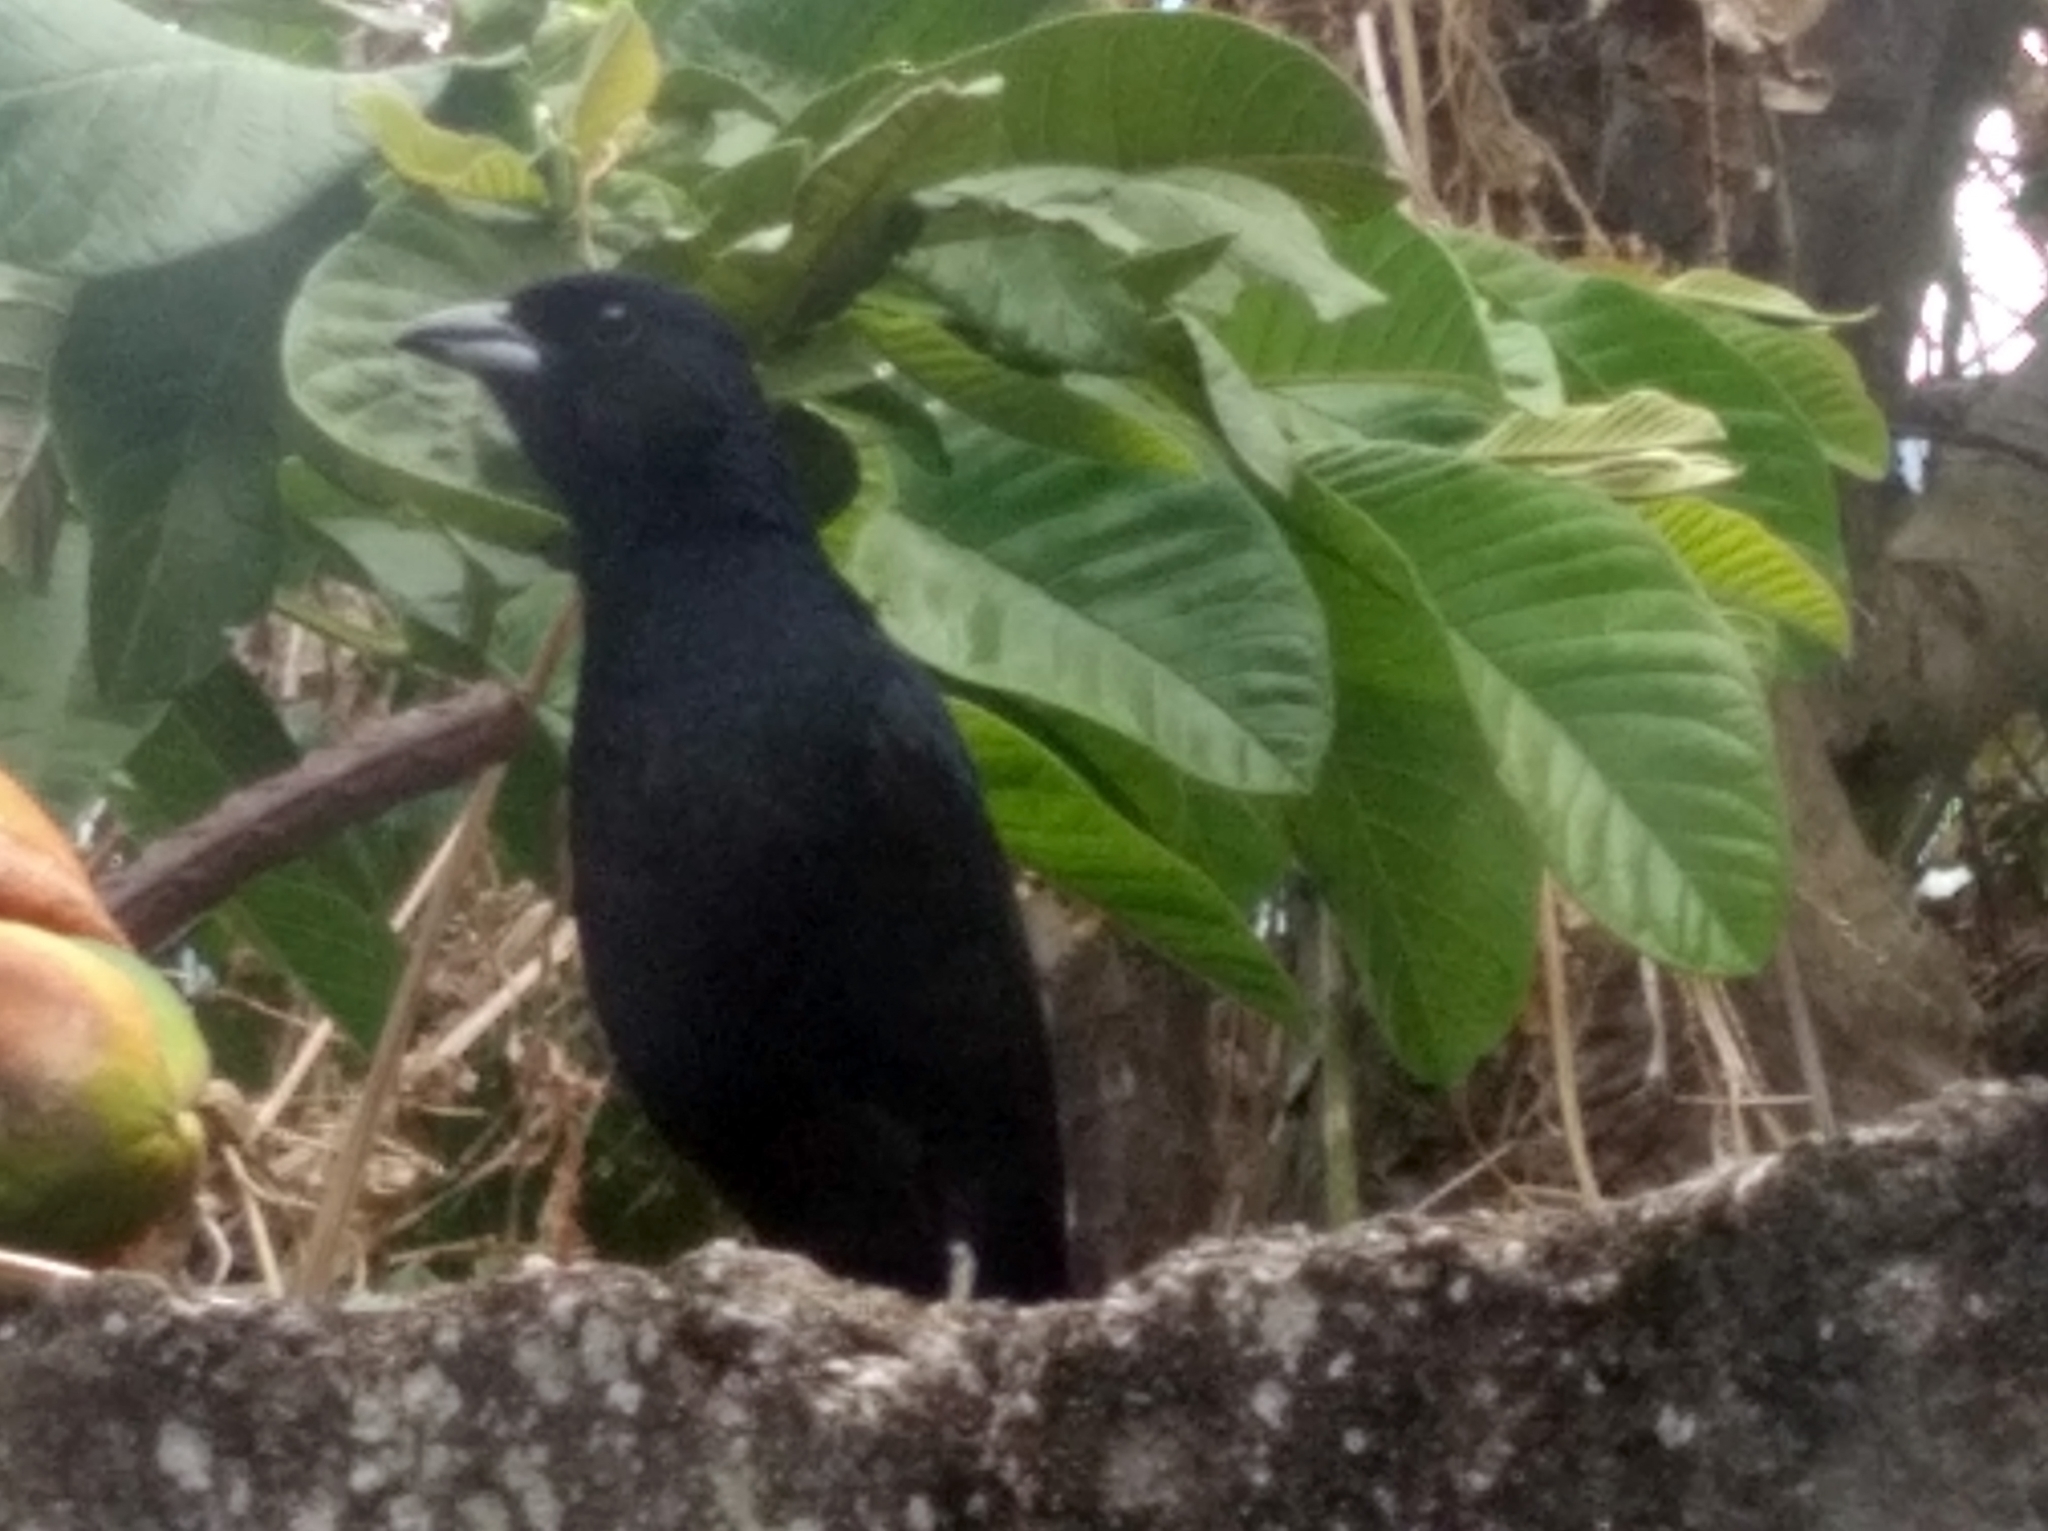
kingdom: Animalia
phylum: Chordata
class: Aves
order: Passeriformes
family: Thraupidae
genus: Tachyphonus
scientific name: Tachyphonus rufus
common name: White-lined tanager
